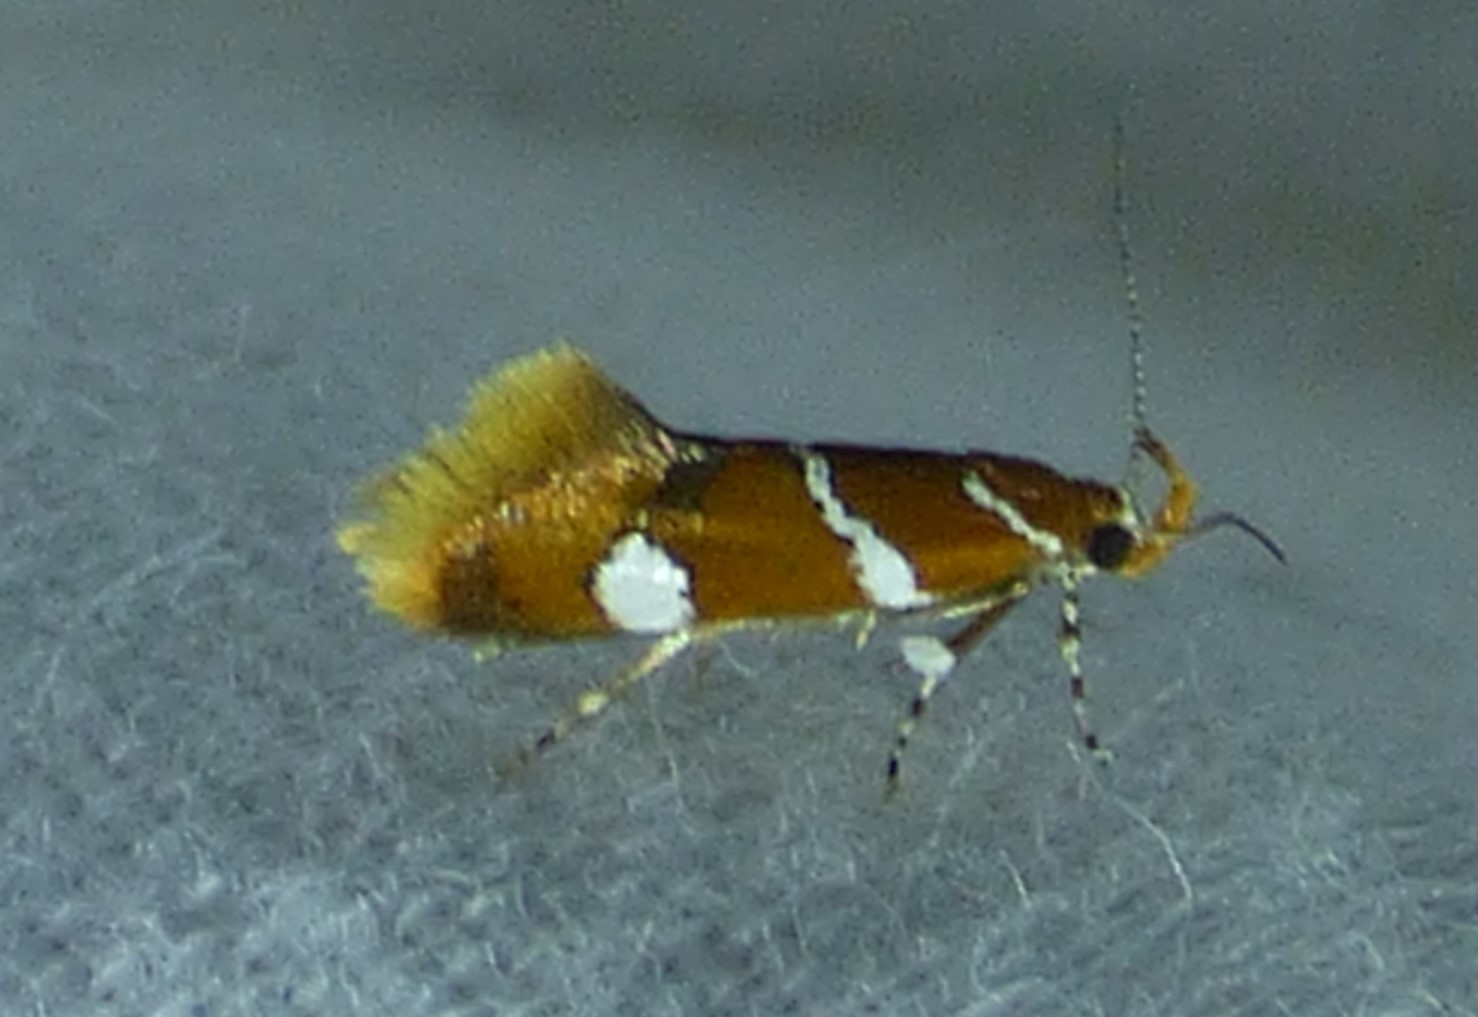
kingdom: Animalia
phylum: Arthropoda
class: Insecta
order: Lepidoptera
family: Oecophoridae
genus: Promalactis
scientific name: Promalactis suzukiella
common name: Moth
